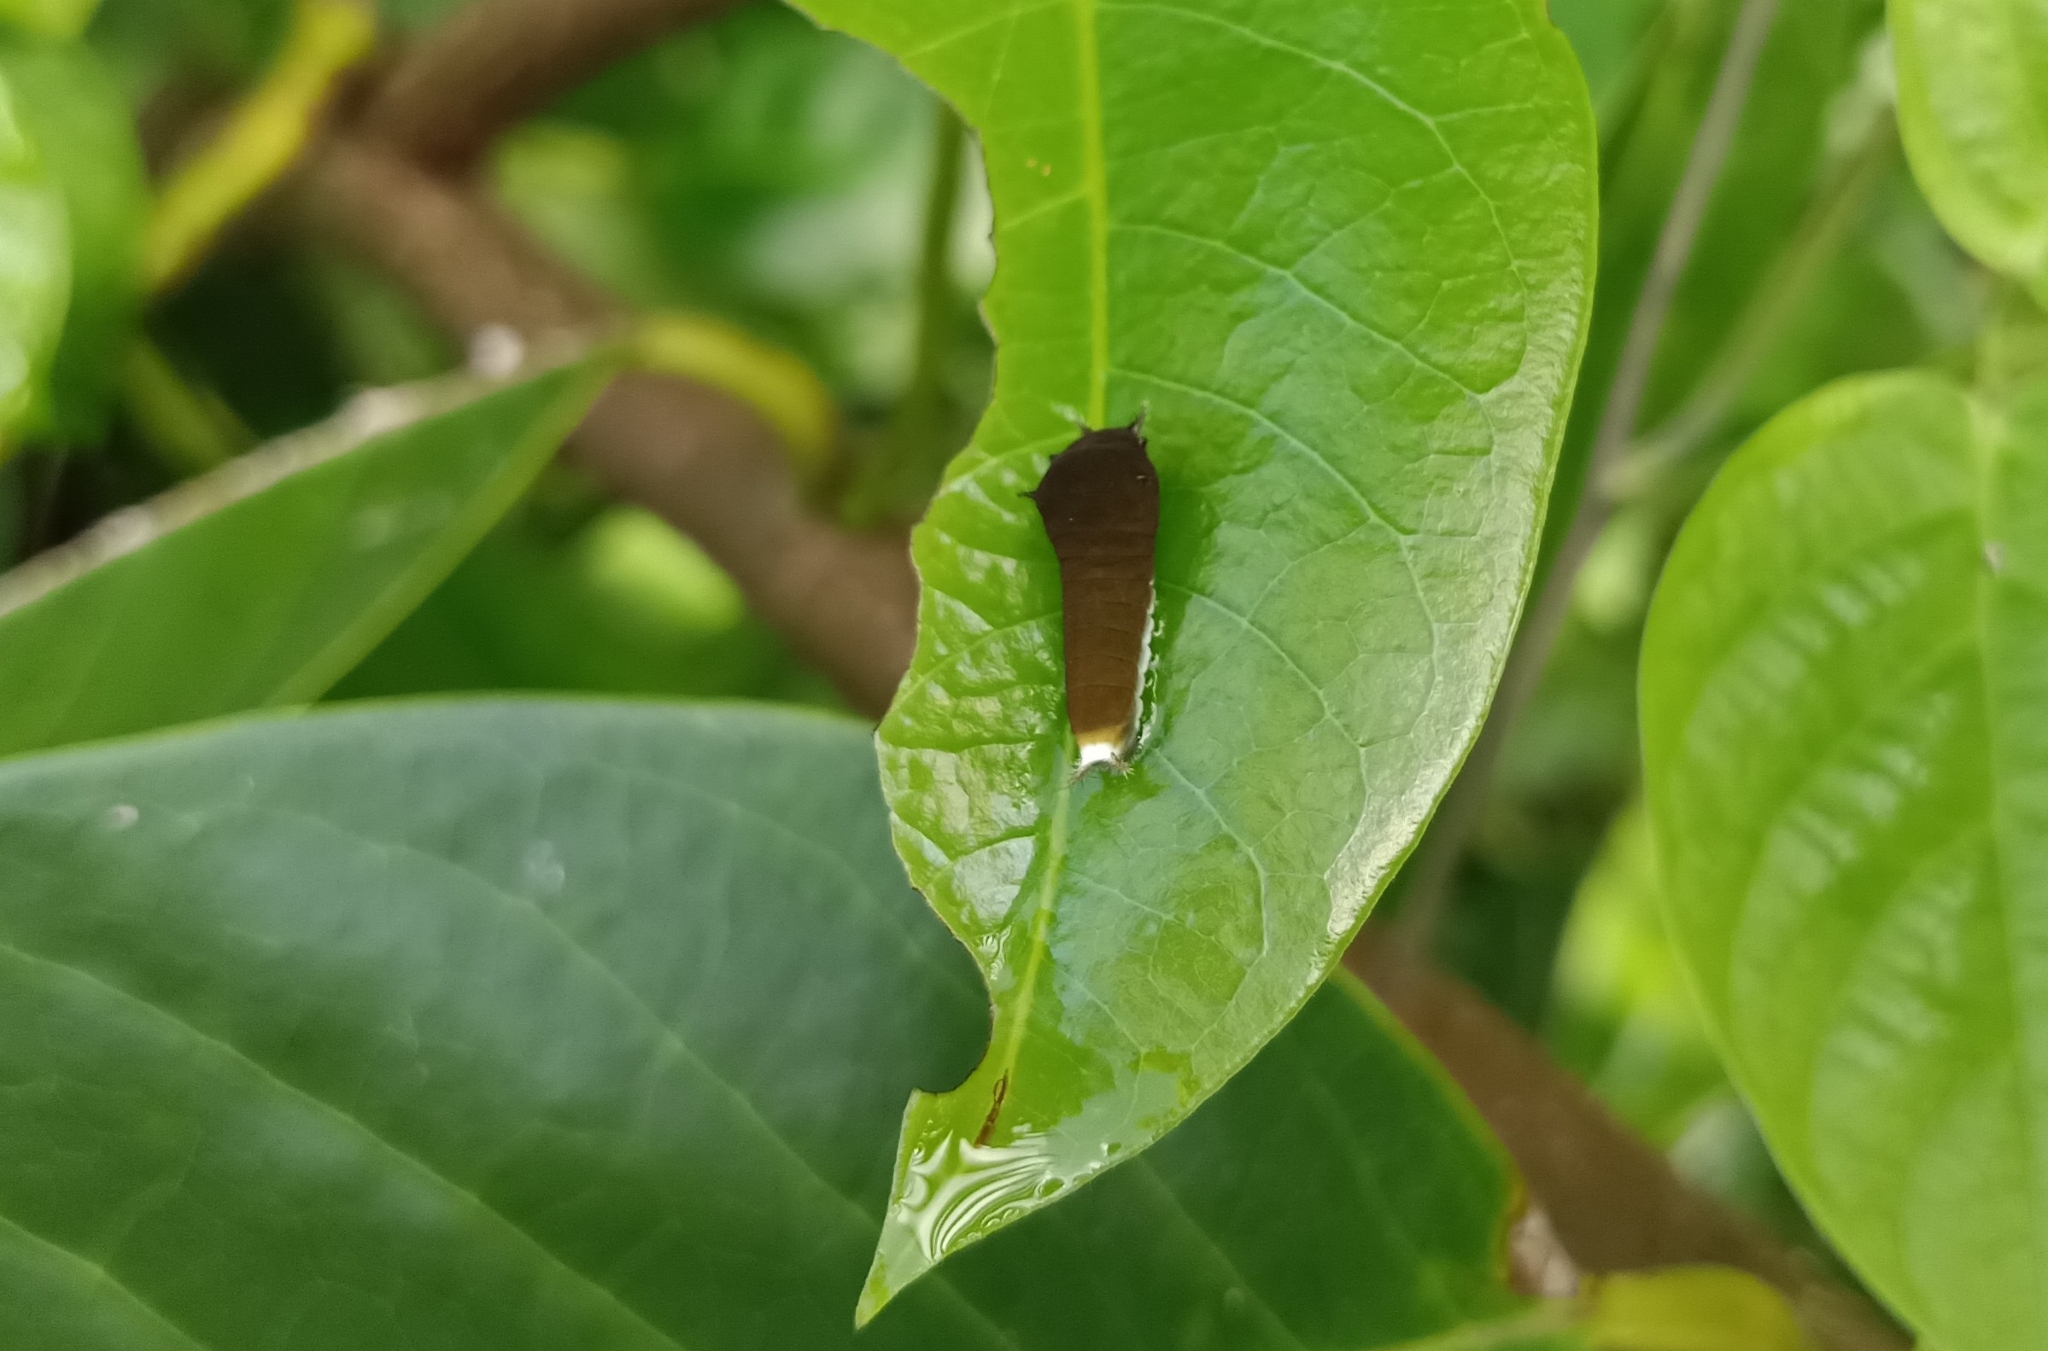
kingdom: Animalia
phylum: Arthropoda
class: Insecta
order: Lepidoptera
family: Papilionidae
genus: Graphium
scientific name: Graphium doson
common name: Common jay
